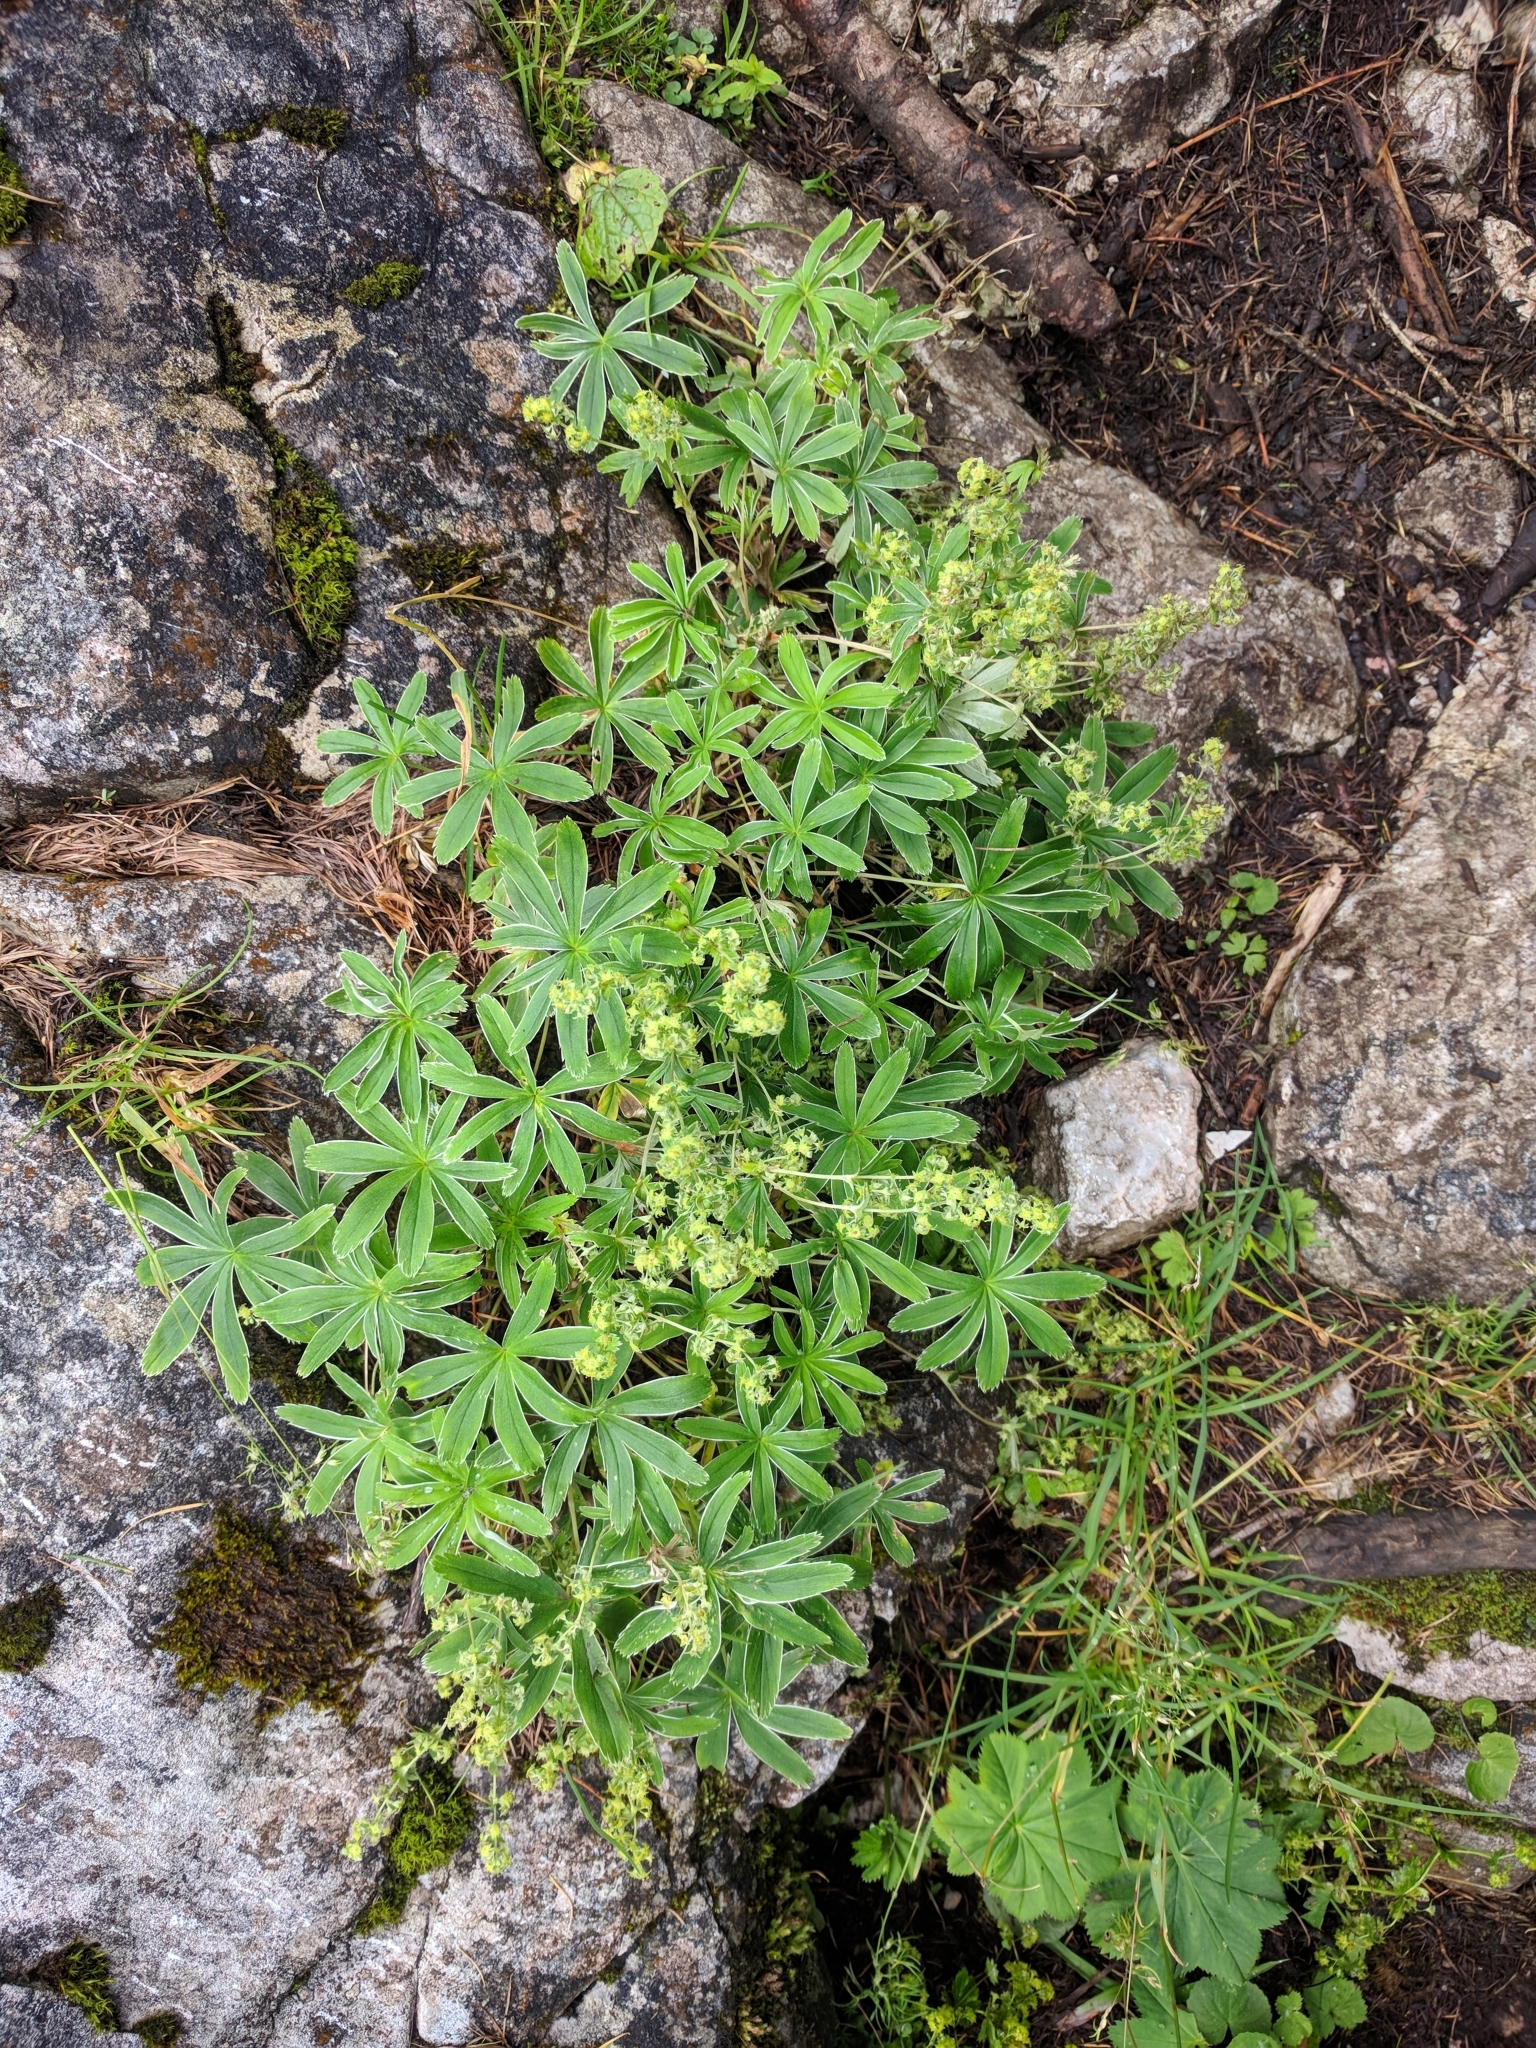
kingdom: Plantae
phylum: Tracheophyta
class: Magnoliopsida
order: Rosales
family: Rosaceae
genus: Alchemilla
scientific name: Alchemilla anisiaca
